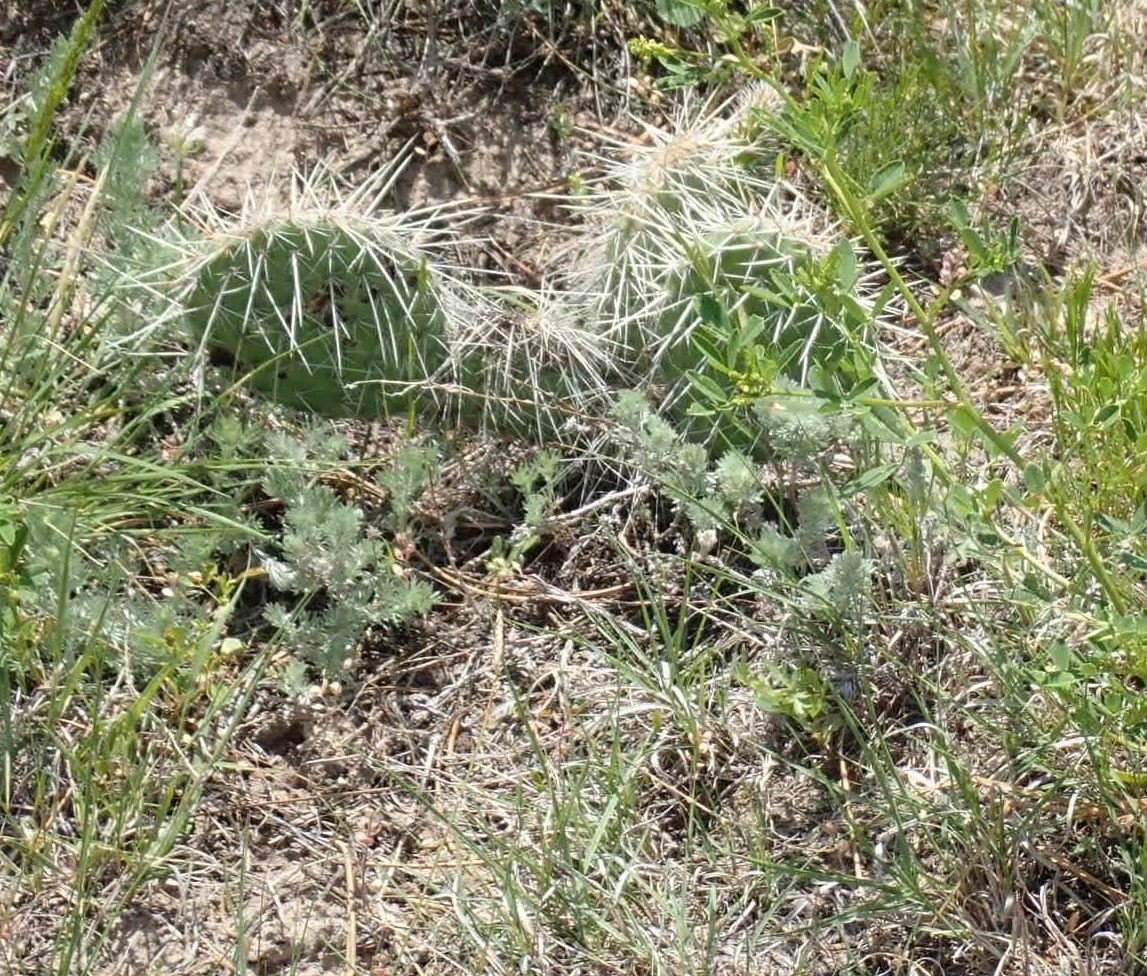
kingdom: Plantae
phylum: Tracheophyta
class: Magnoliopsida
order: Caryophyllales
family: Cactaceae
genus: Opuntia
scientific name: Opuntia polyacantha
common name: Plains prickly-pear
